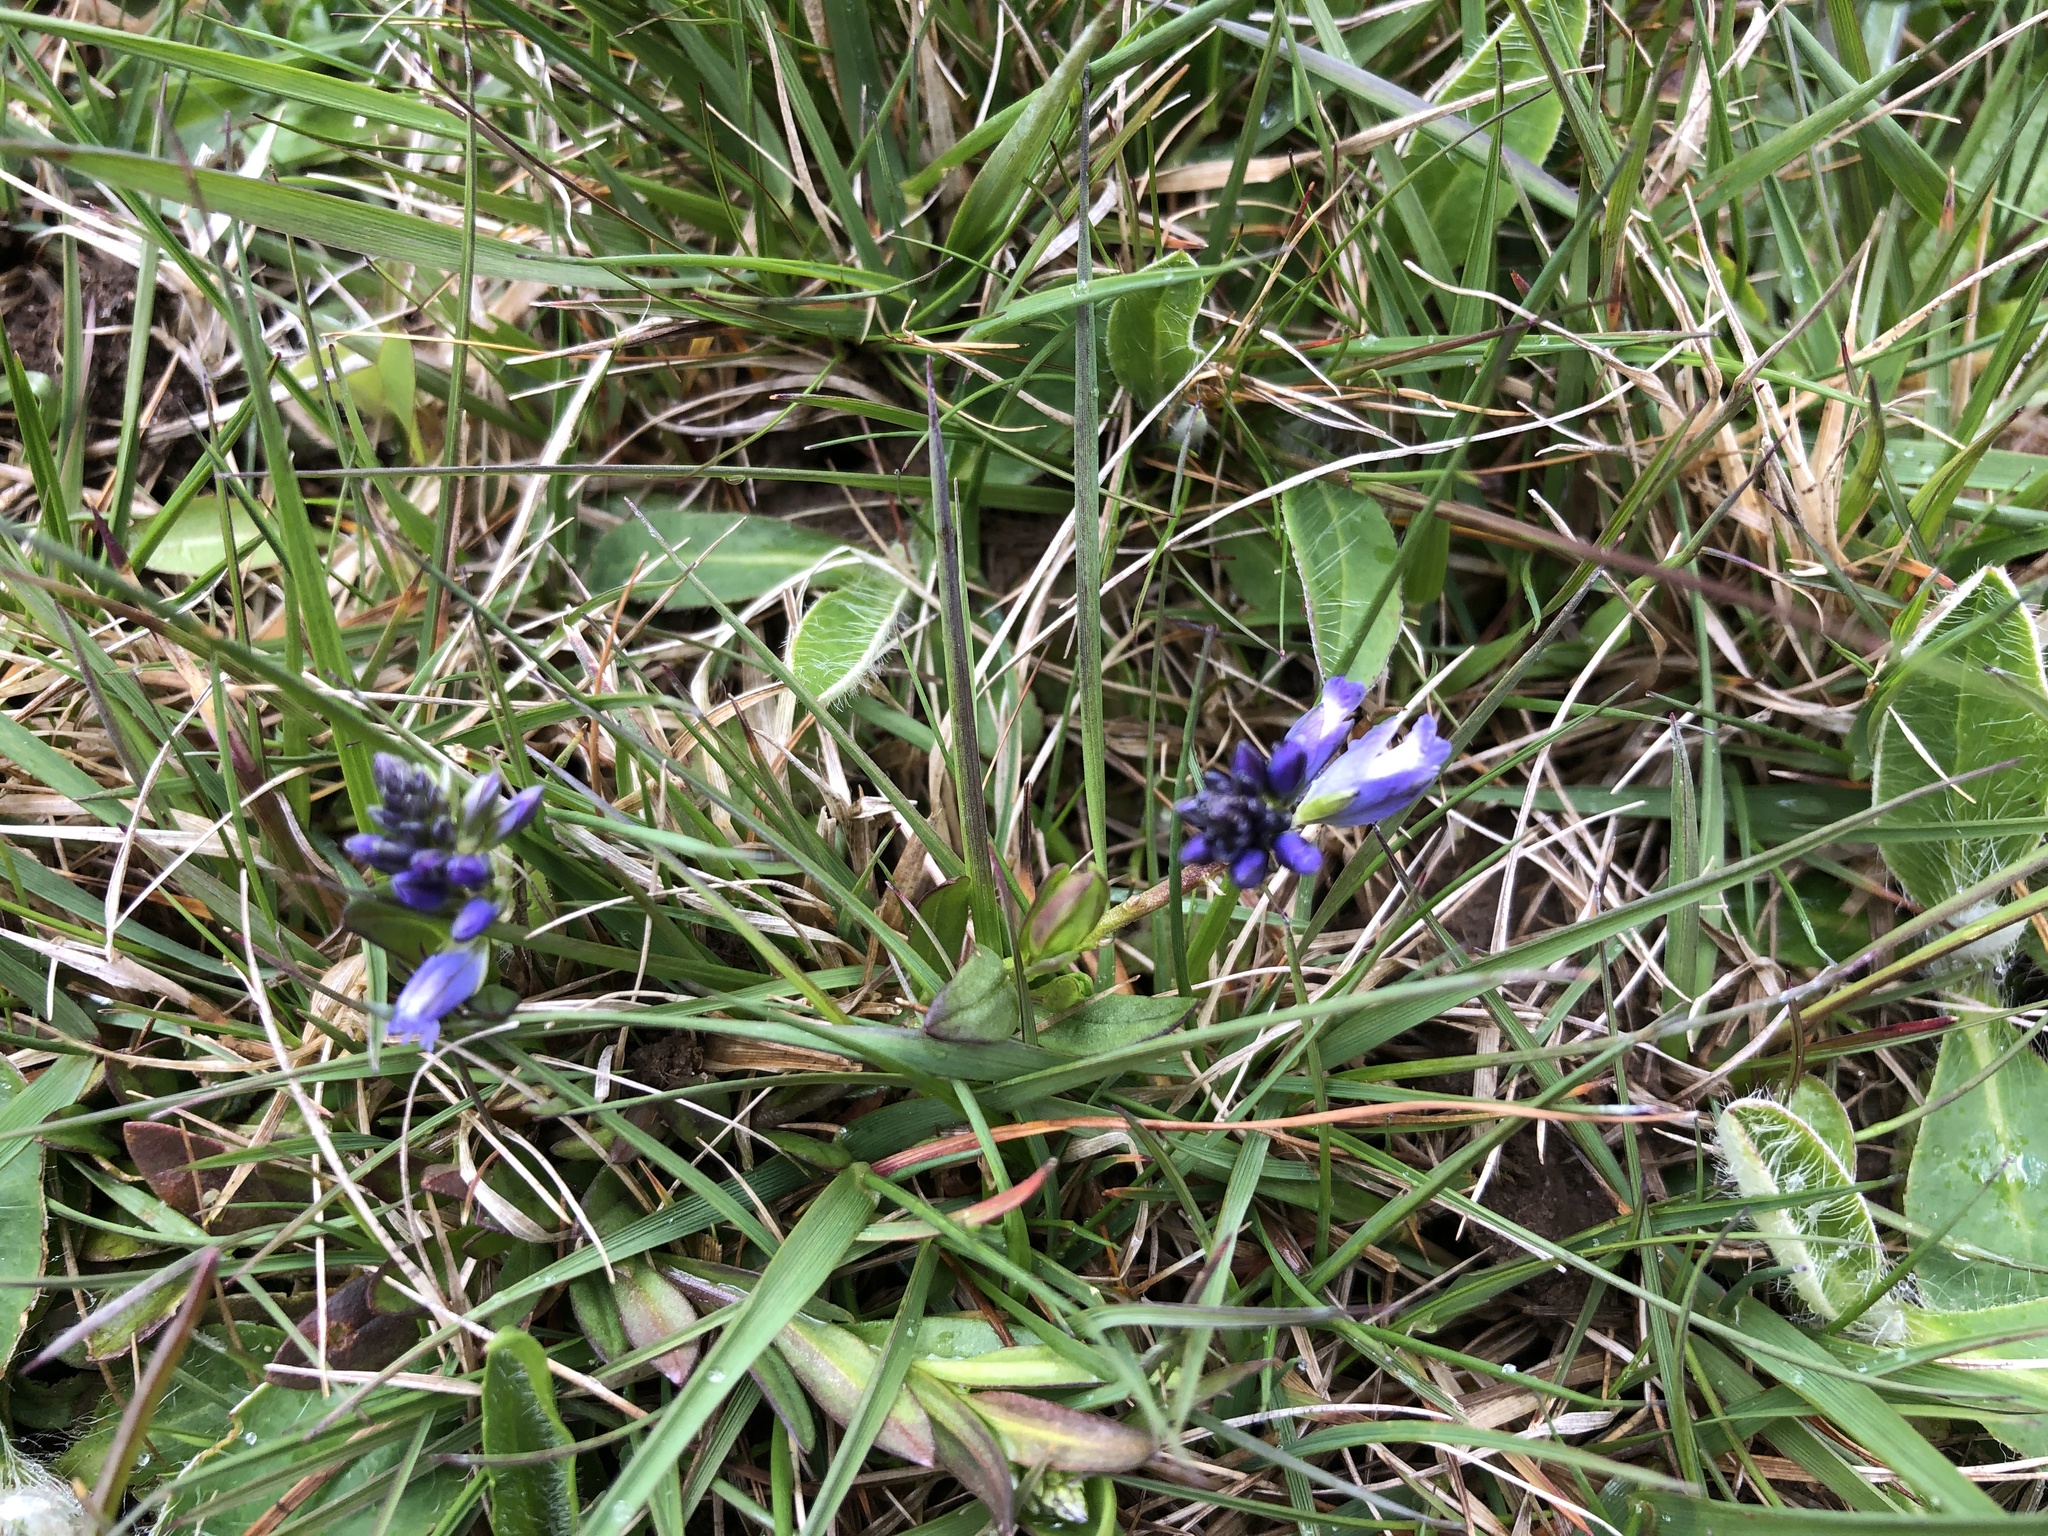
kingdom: Plantae
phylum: Tracheophyta
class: Magnoliopsida
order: Fabales
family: Polygalaceae
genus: Polygala
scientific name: Polygala vulgaris
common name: Common milkwort
